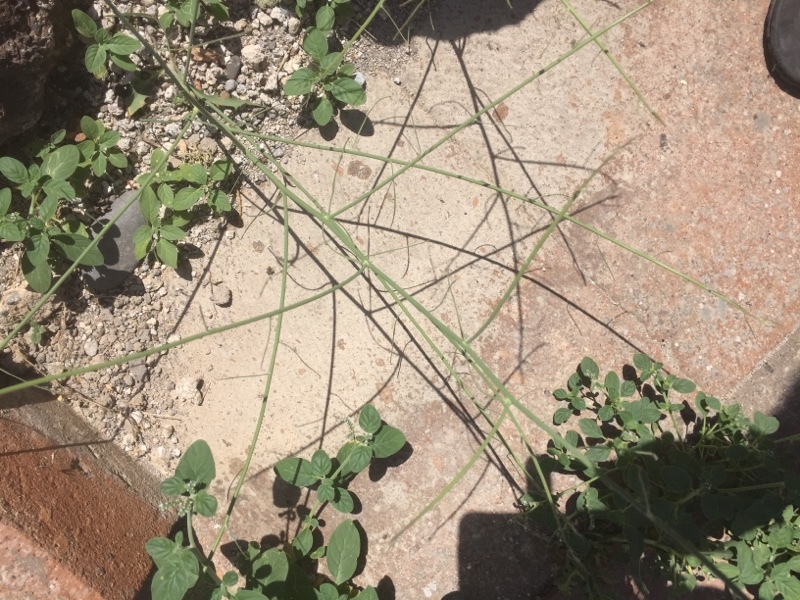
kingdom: Plantae
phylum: Tracheophyta
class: Magnoliopsida
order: Asterales
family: Asteraceae
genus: Chondrilla
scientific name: Chondrilla juncea
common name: Skeleton weed
